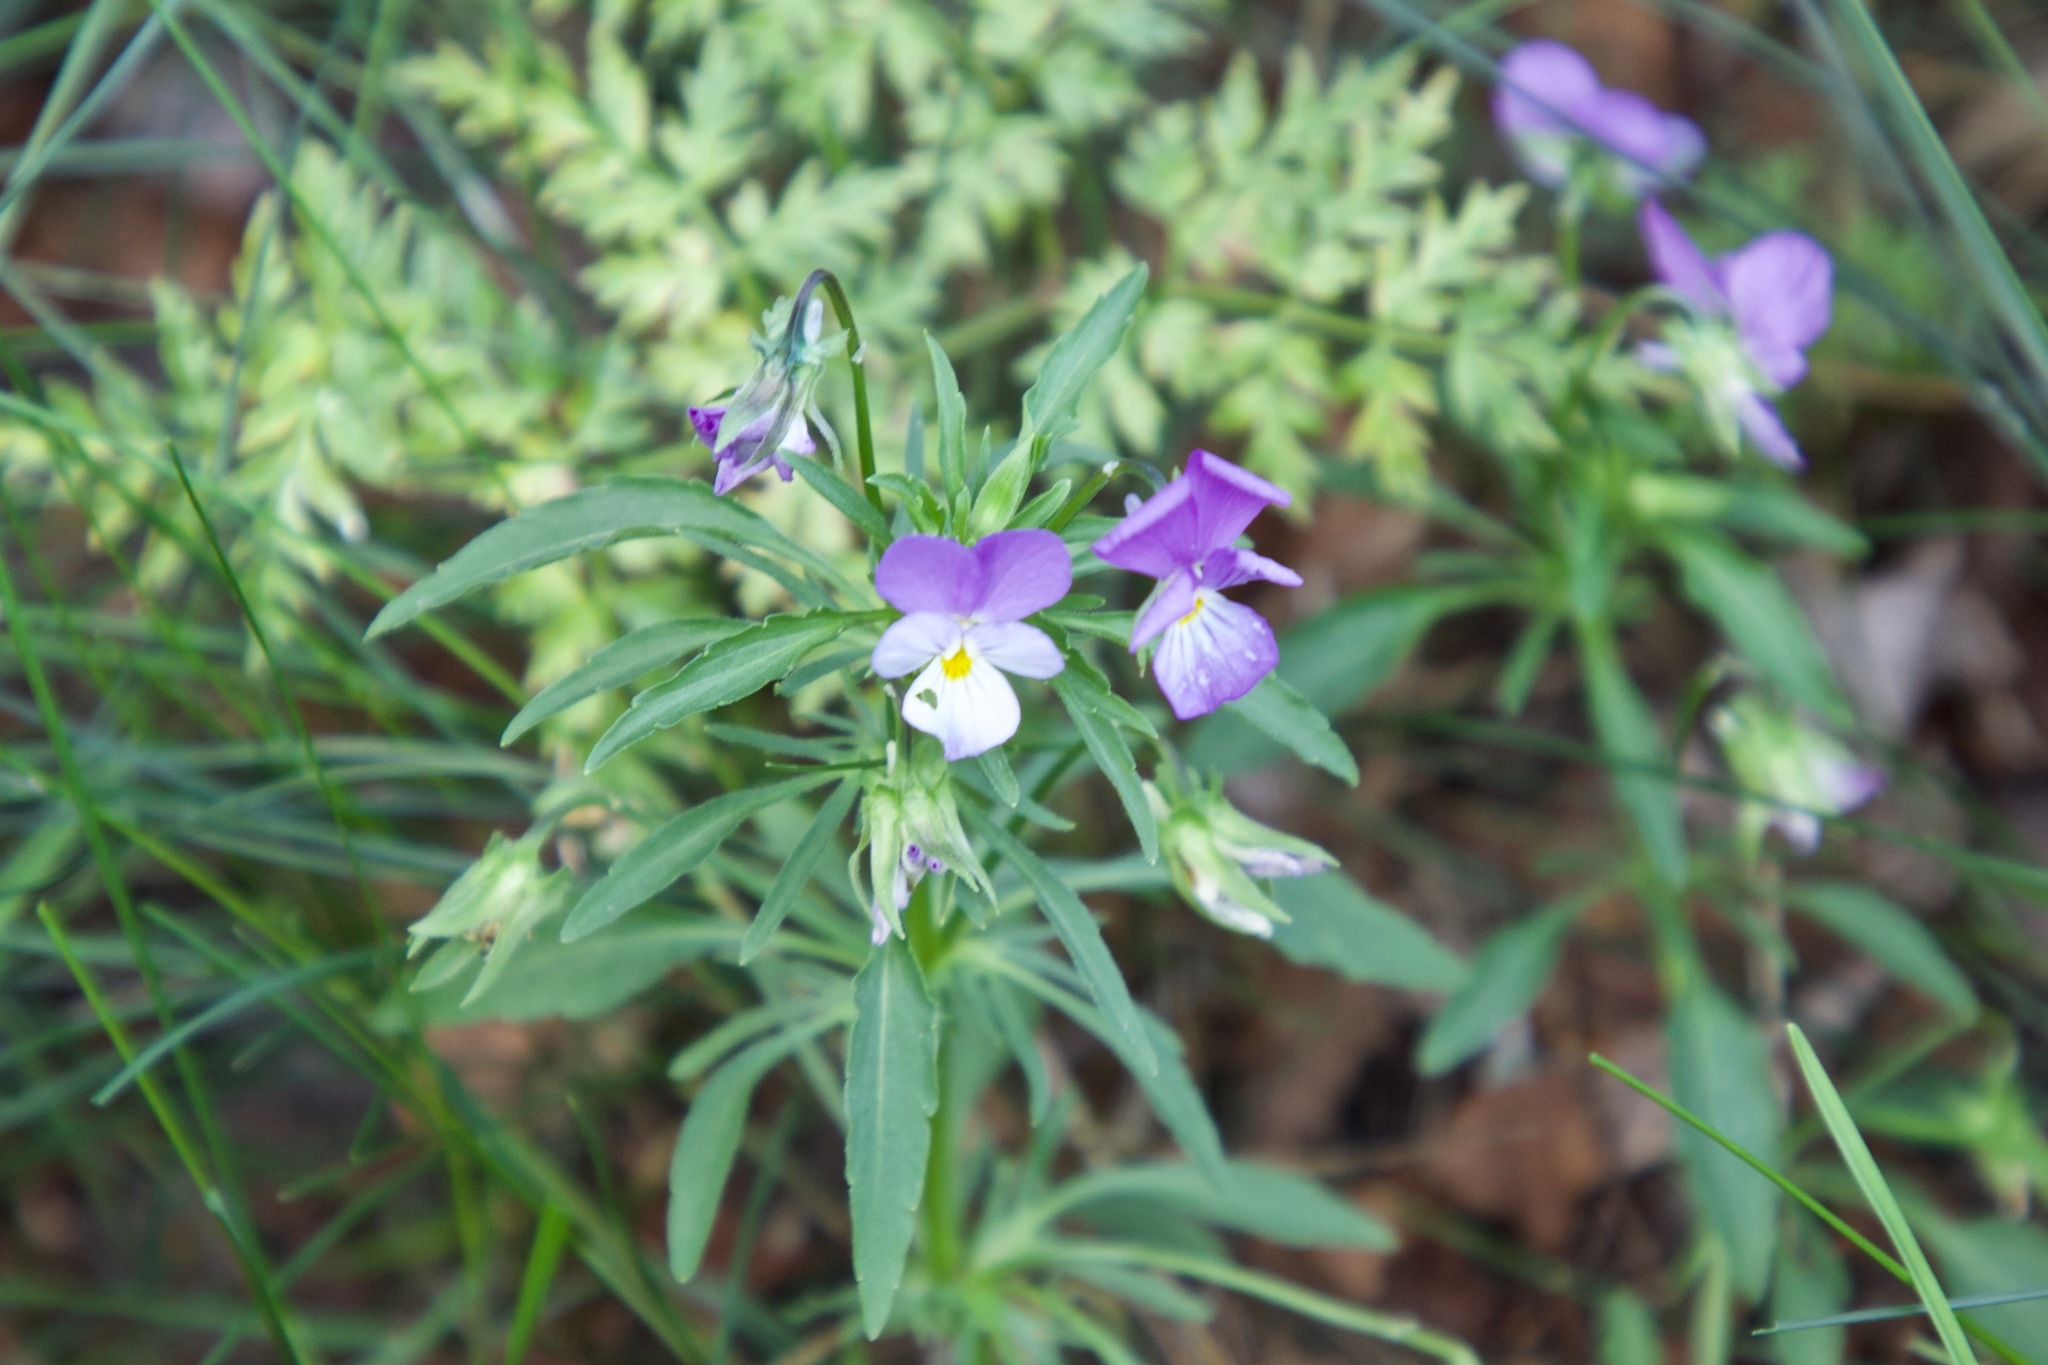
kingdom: Plantae
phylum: Tracheophyta
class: Magnoliopsida
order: Malpighiales
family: Violaceae
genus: Viola
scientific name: Viola tricolor
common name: Pansy
